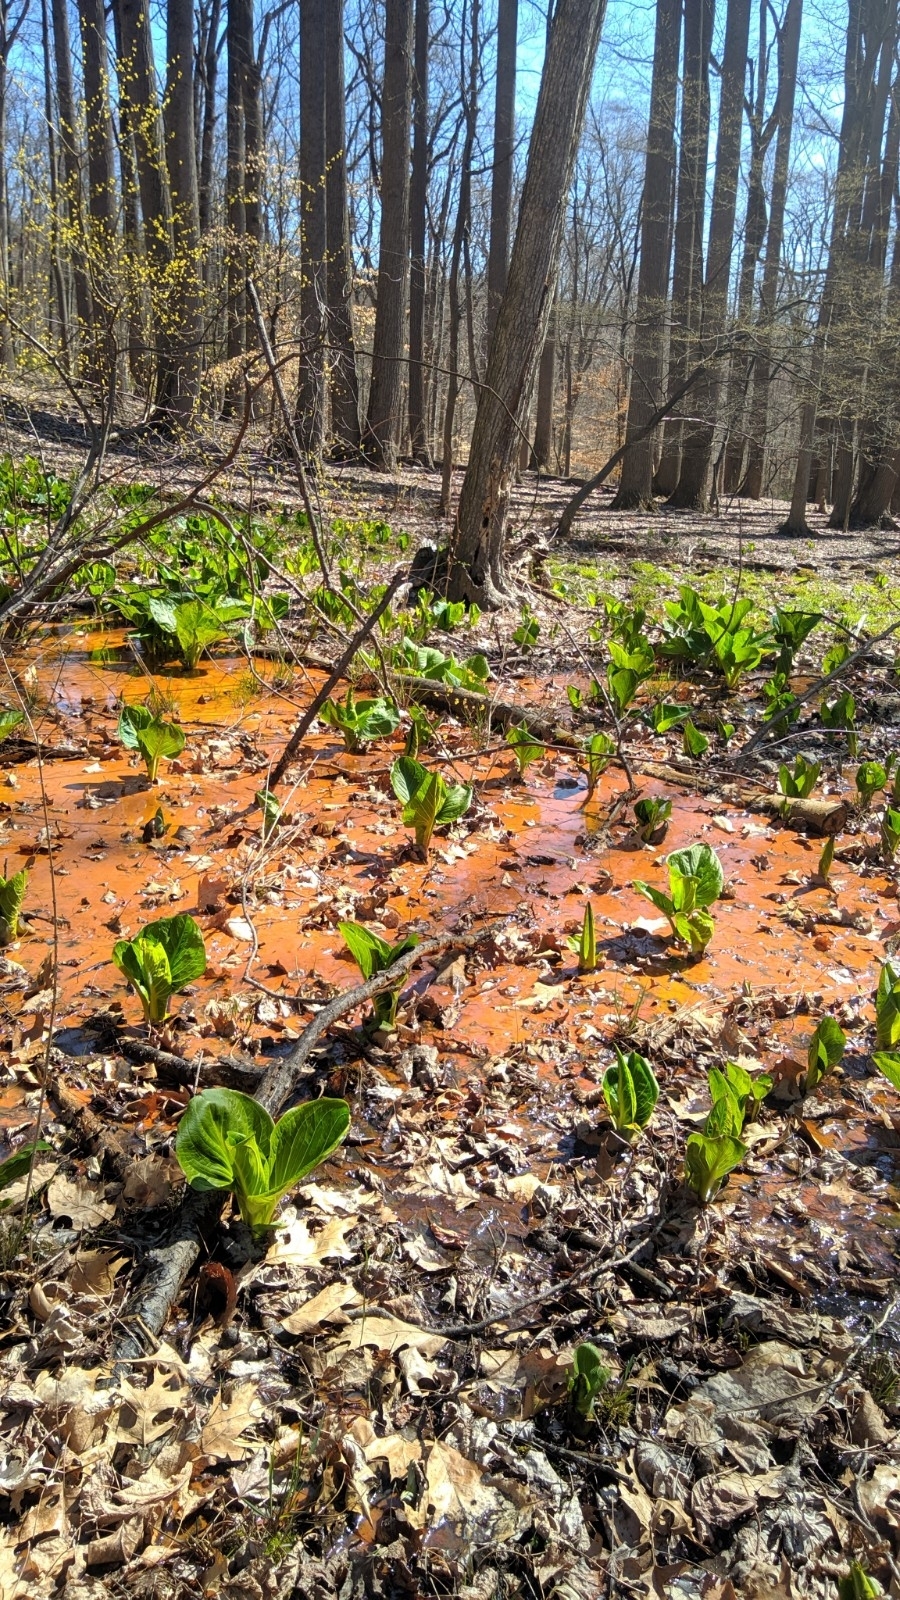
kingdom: Plantae
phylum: Tracheophyta
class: Liliopsida
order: Liliales
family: Melanthiaceae
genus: Veratrum
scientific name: Veratrum viride
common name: American false hellebore
